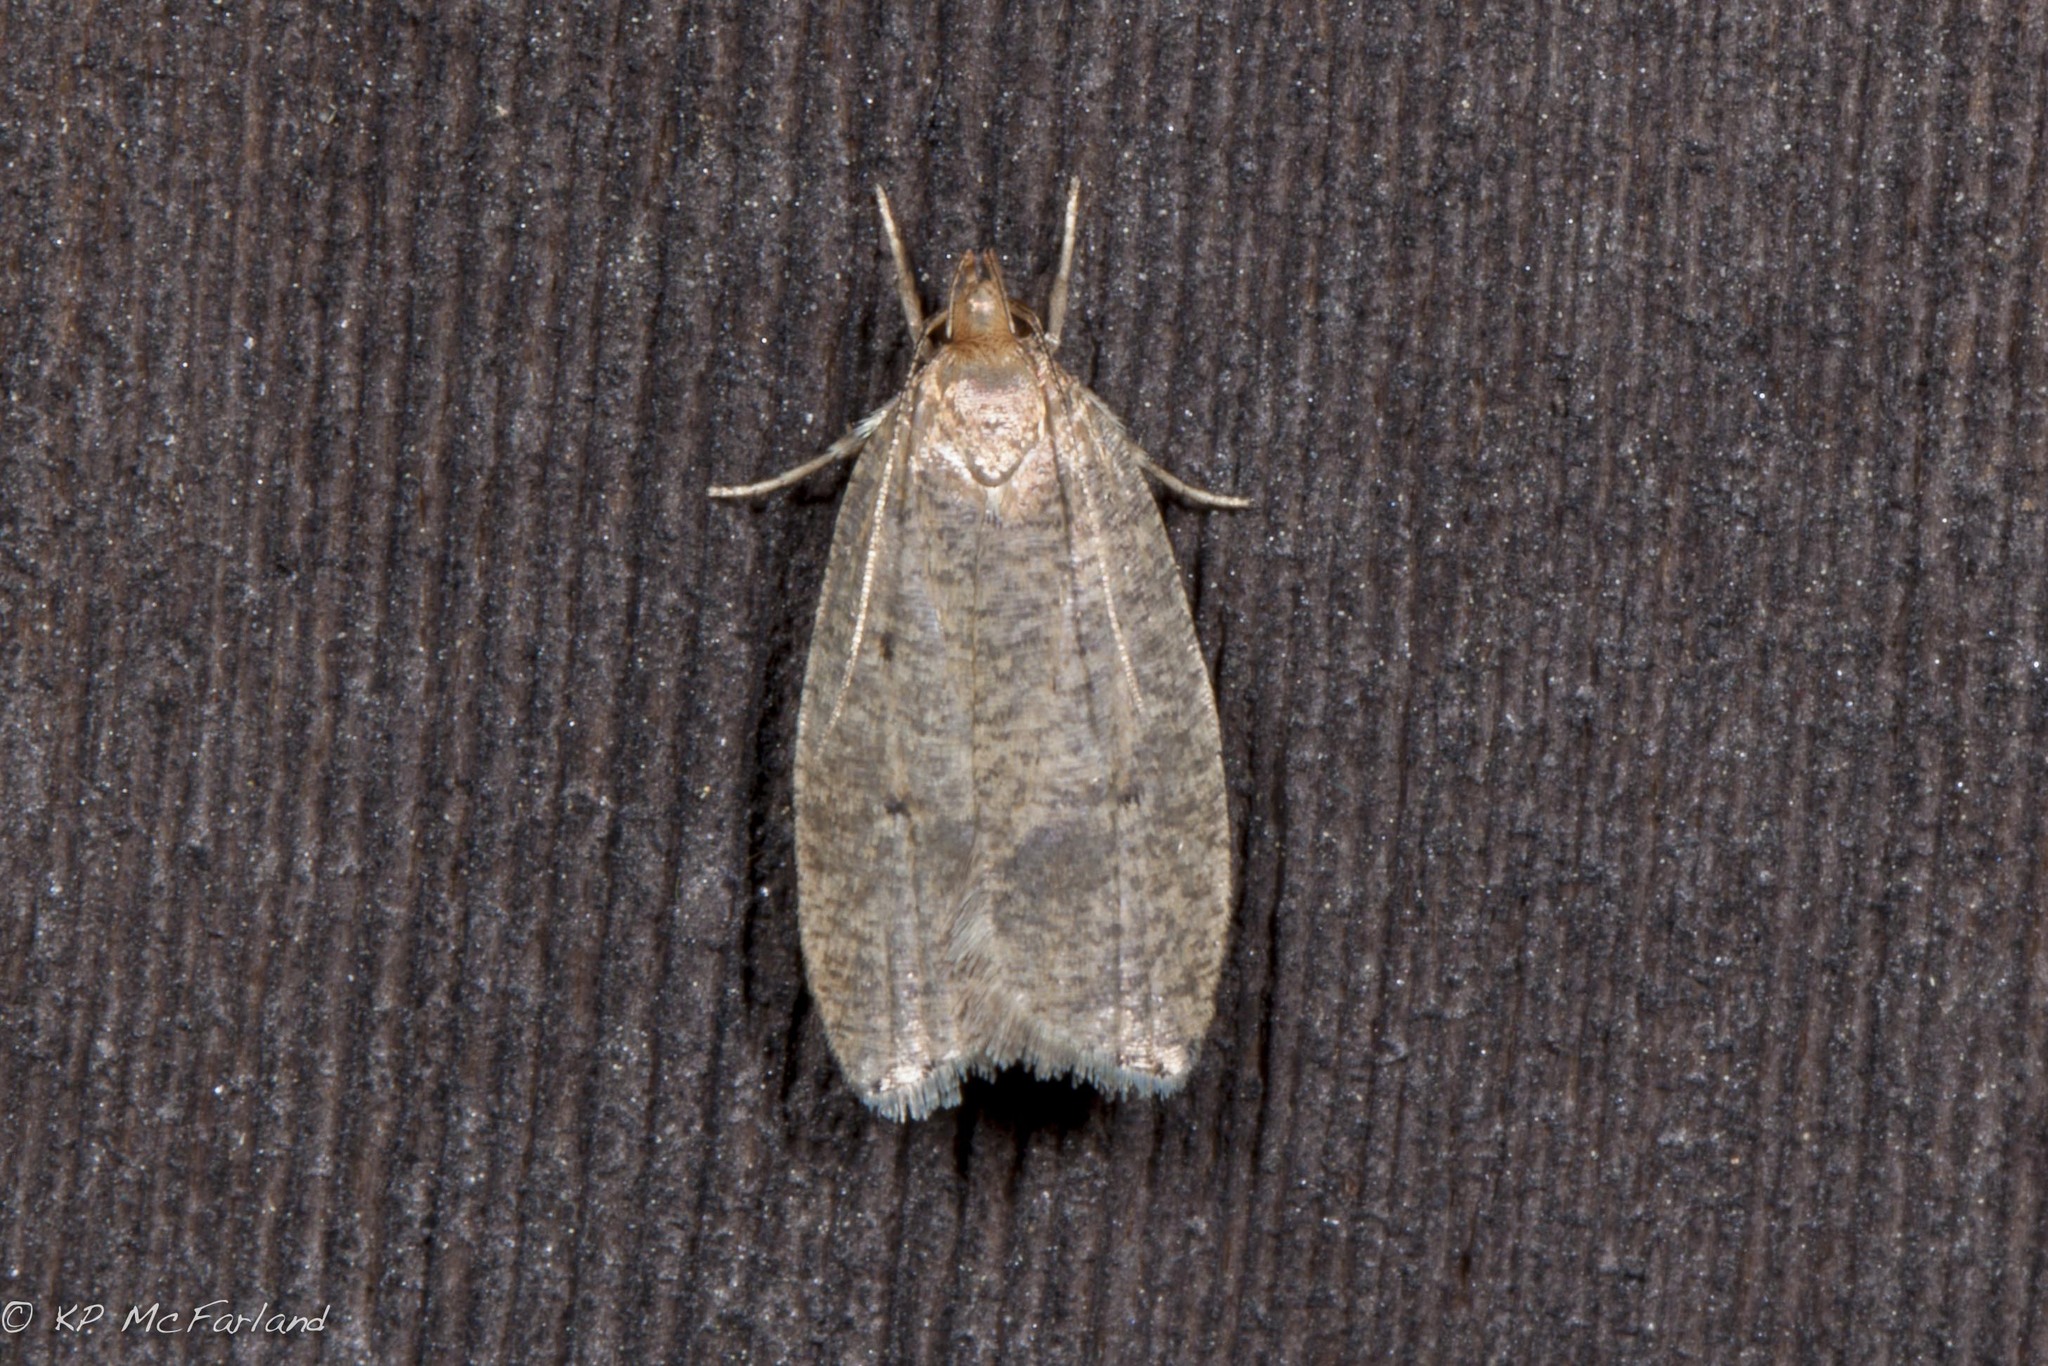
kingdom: Animalia
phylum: Arthropoda
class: Insecta
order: Lepidoptera
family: Depressariidae
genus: Psilocorsis
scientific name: Psilocorsis reflexella
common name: Dotted leaftier moth
